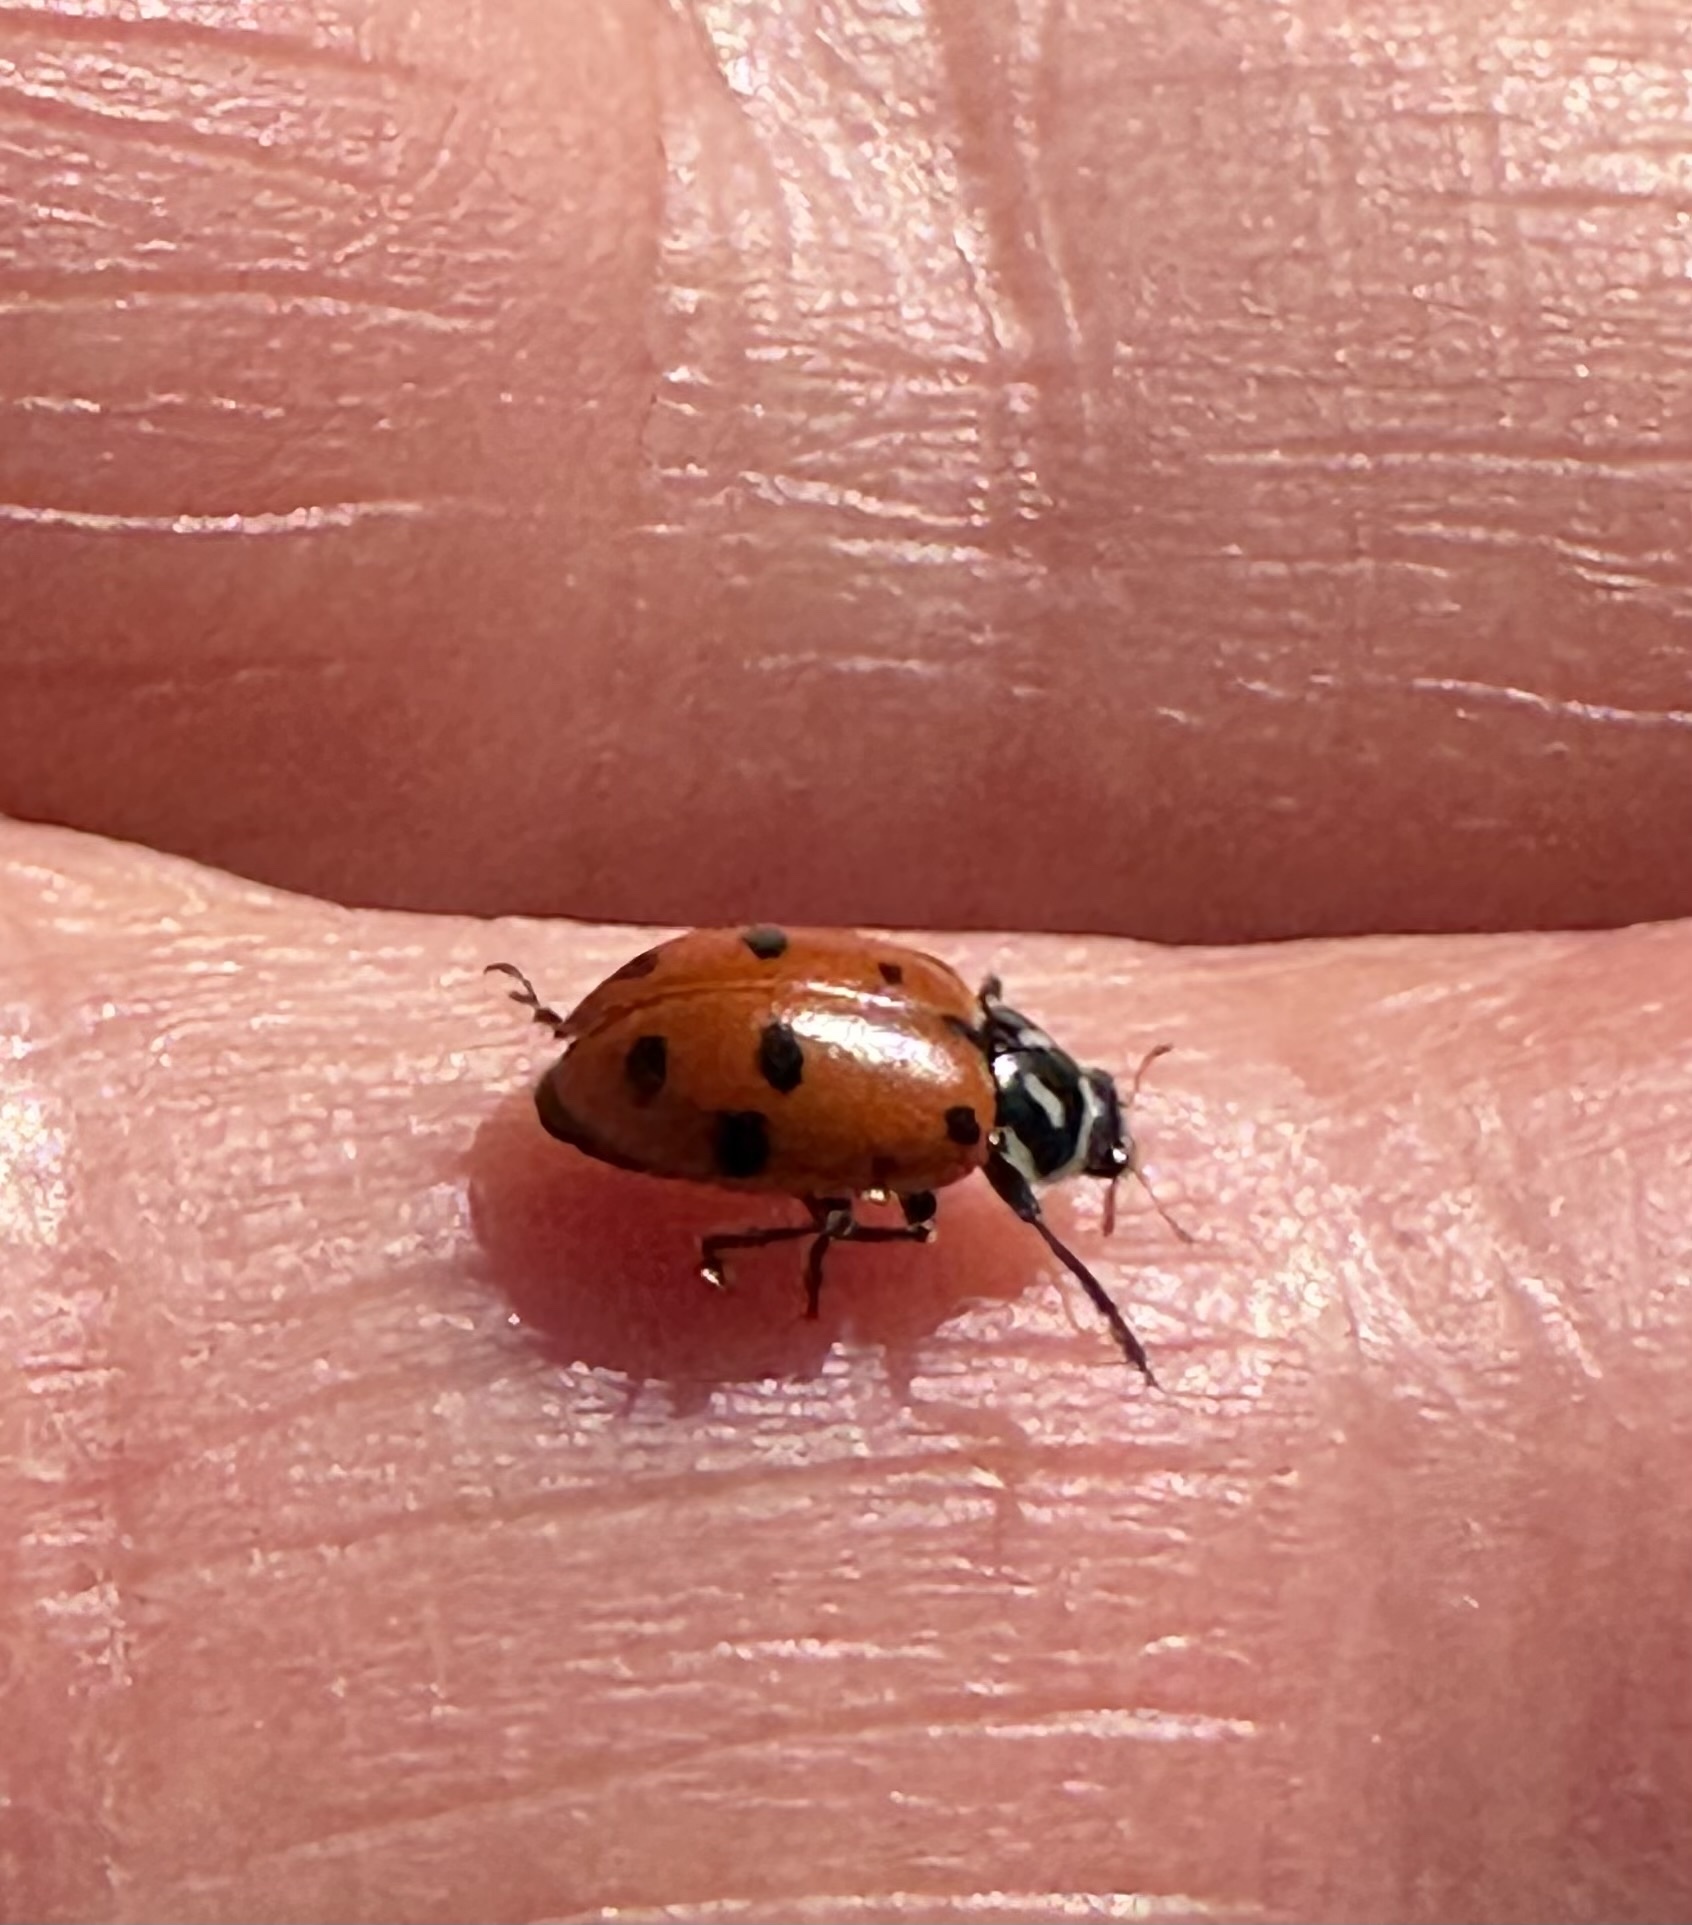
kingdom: Animalia
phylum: Arthropoda
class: Insecta
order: Coleoptera
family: Coccinellidae
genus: Hippodamia
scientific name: Hippodamia convergens
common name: Convergent lady beetle
